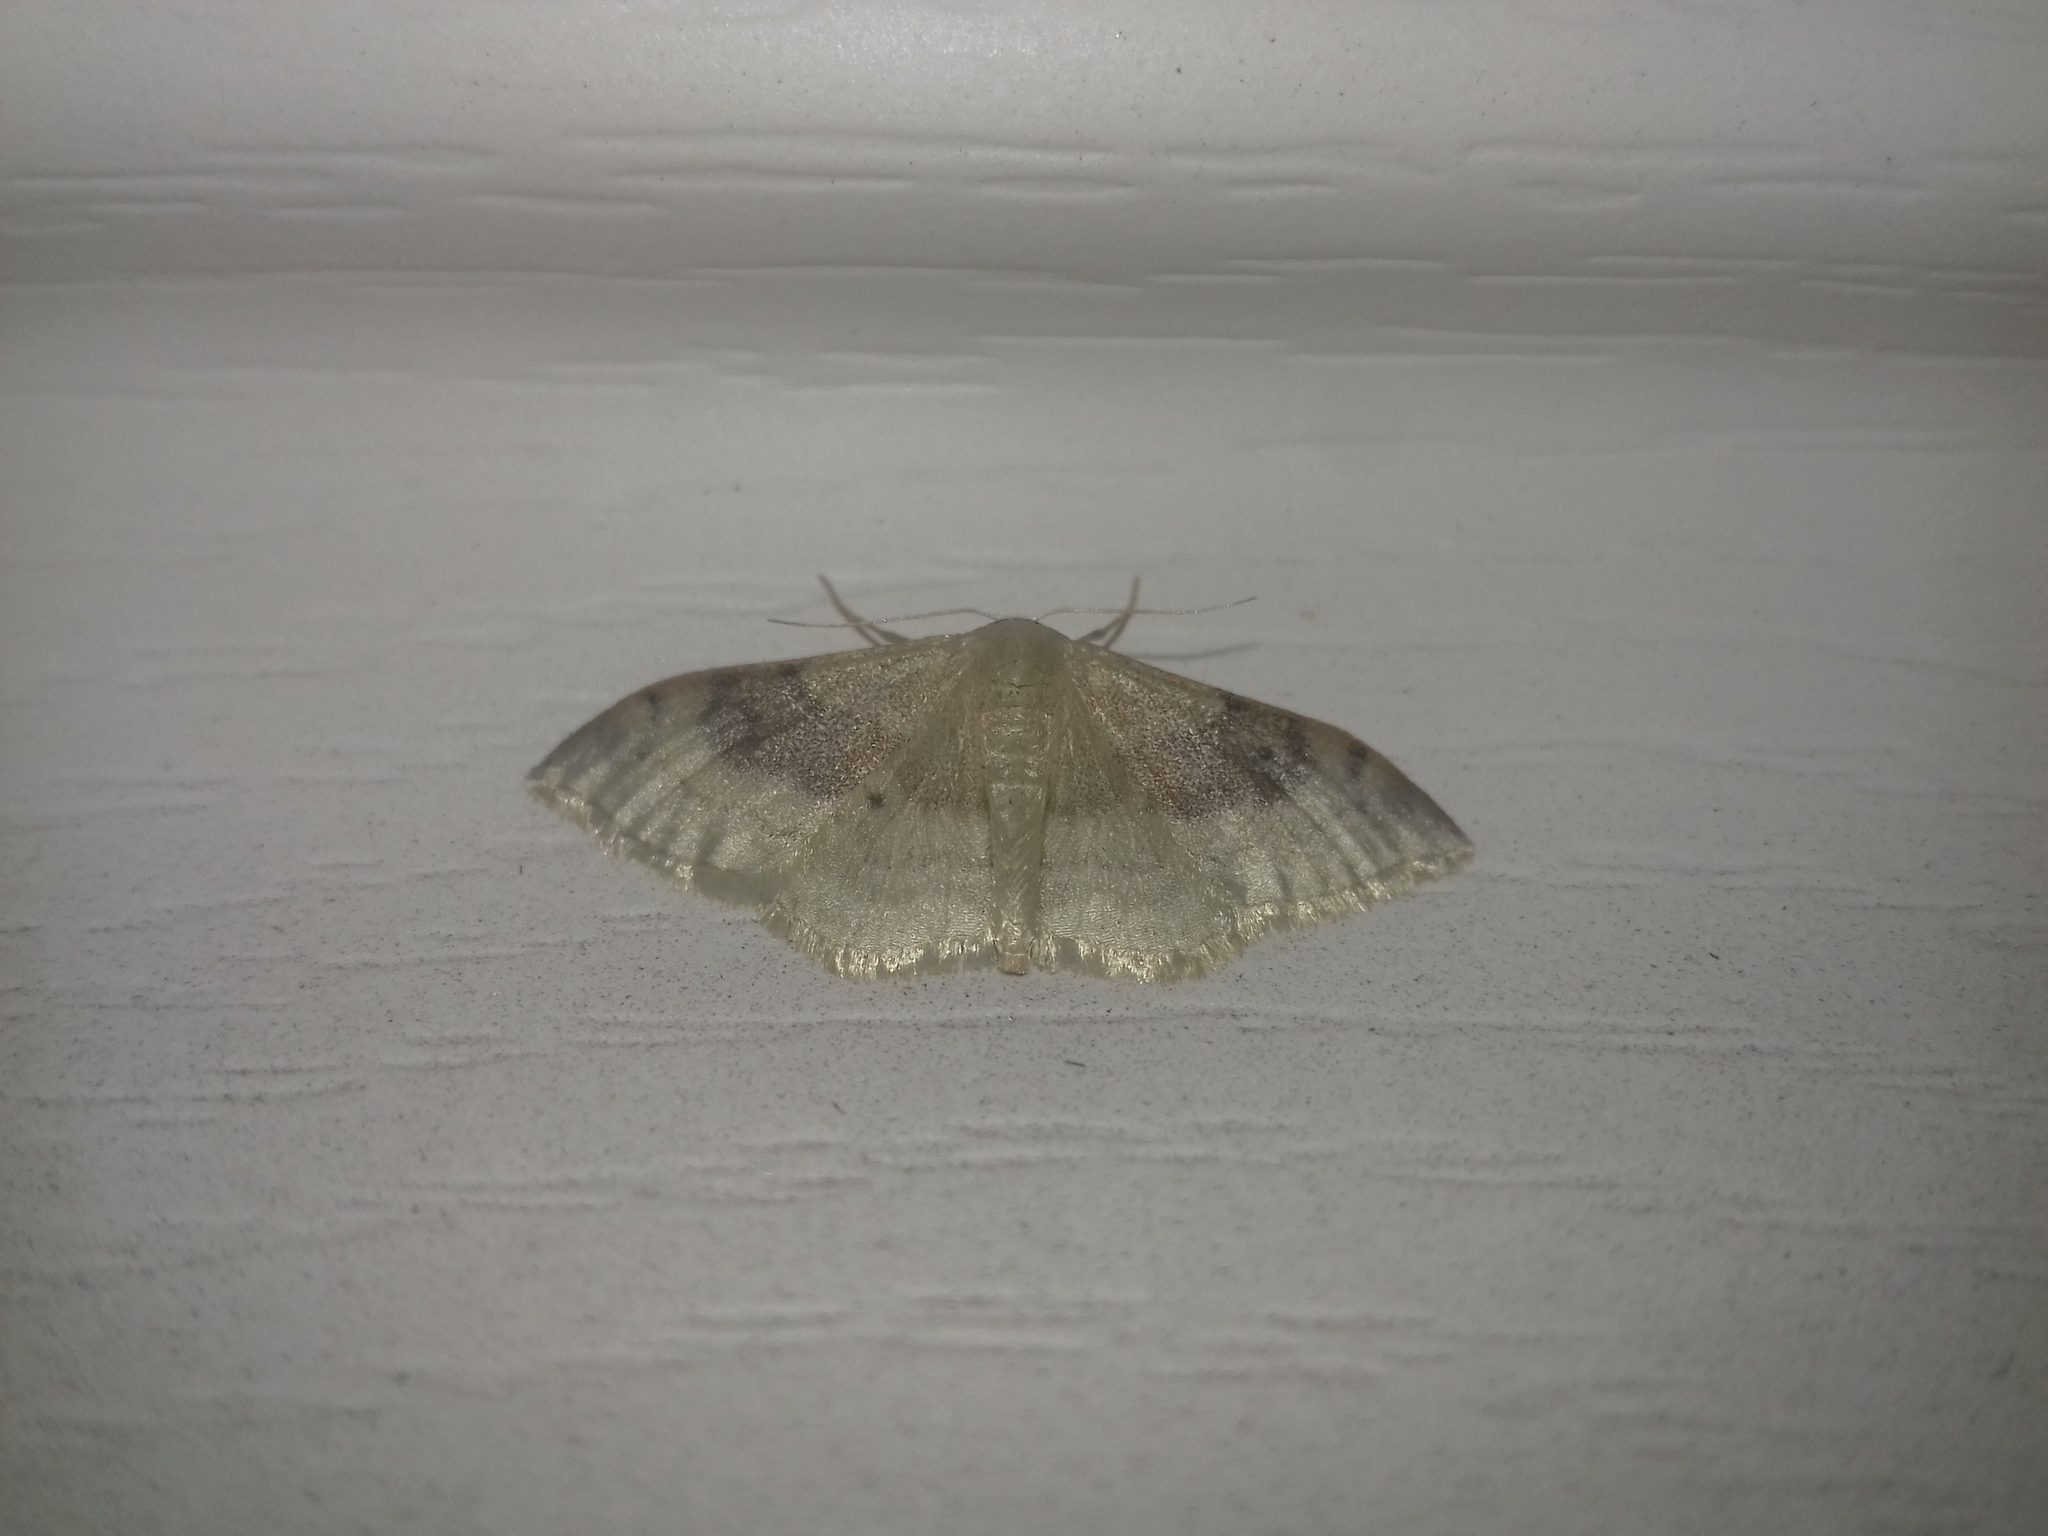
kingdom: Animalia
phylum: Arthropoda
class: Insecta
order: Lepidoptera
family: Geometridae
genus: Idaea
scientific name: Idaea degeneraria
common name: Portland ribbon wave
